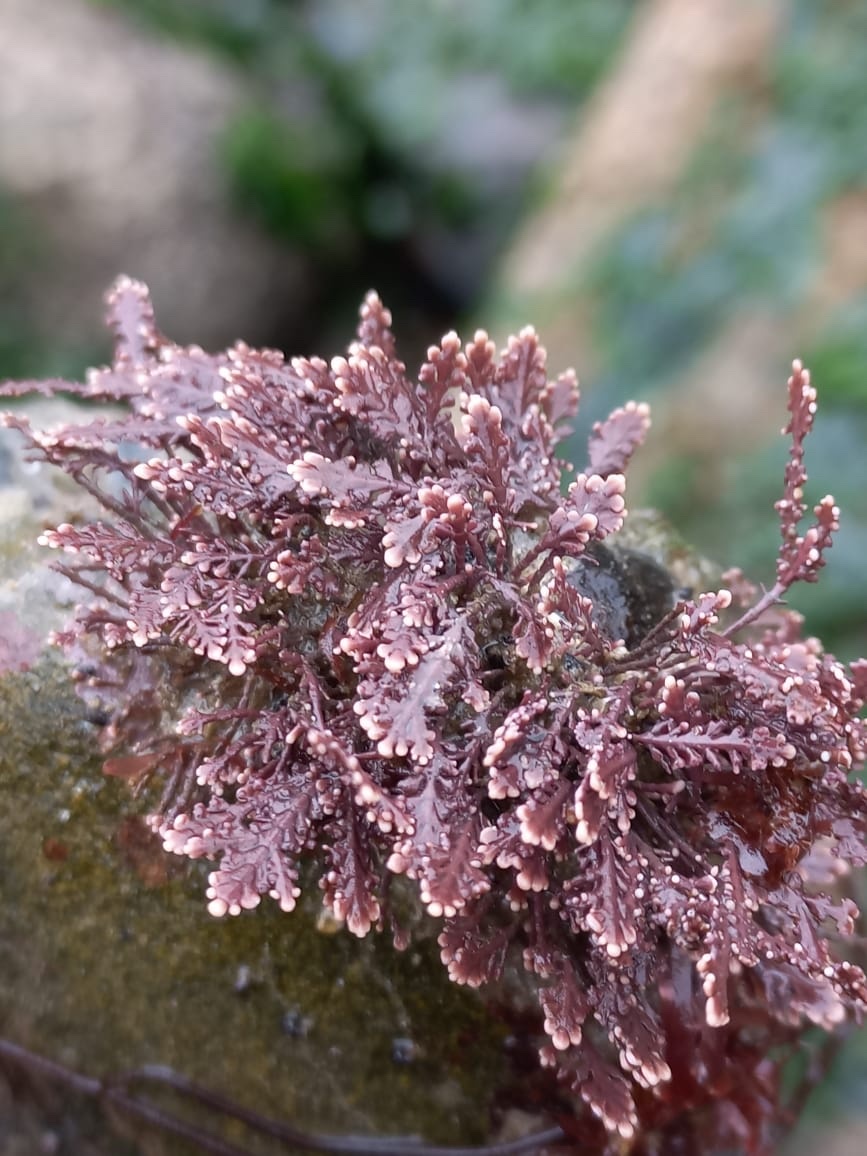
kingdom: Plantae
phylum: Rhodophyta
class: Florideophyceae
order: Corallinales
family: Corallinaceae
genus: Corallina
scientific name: Corallina officinalis
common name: Coral weed
